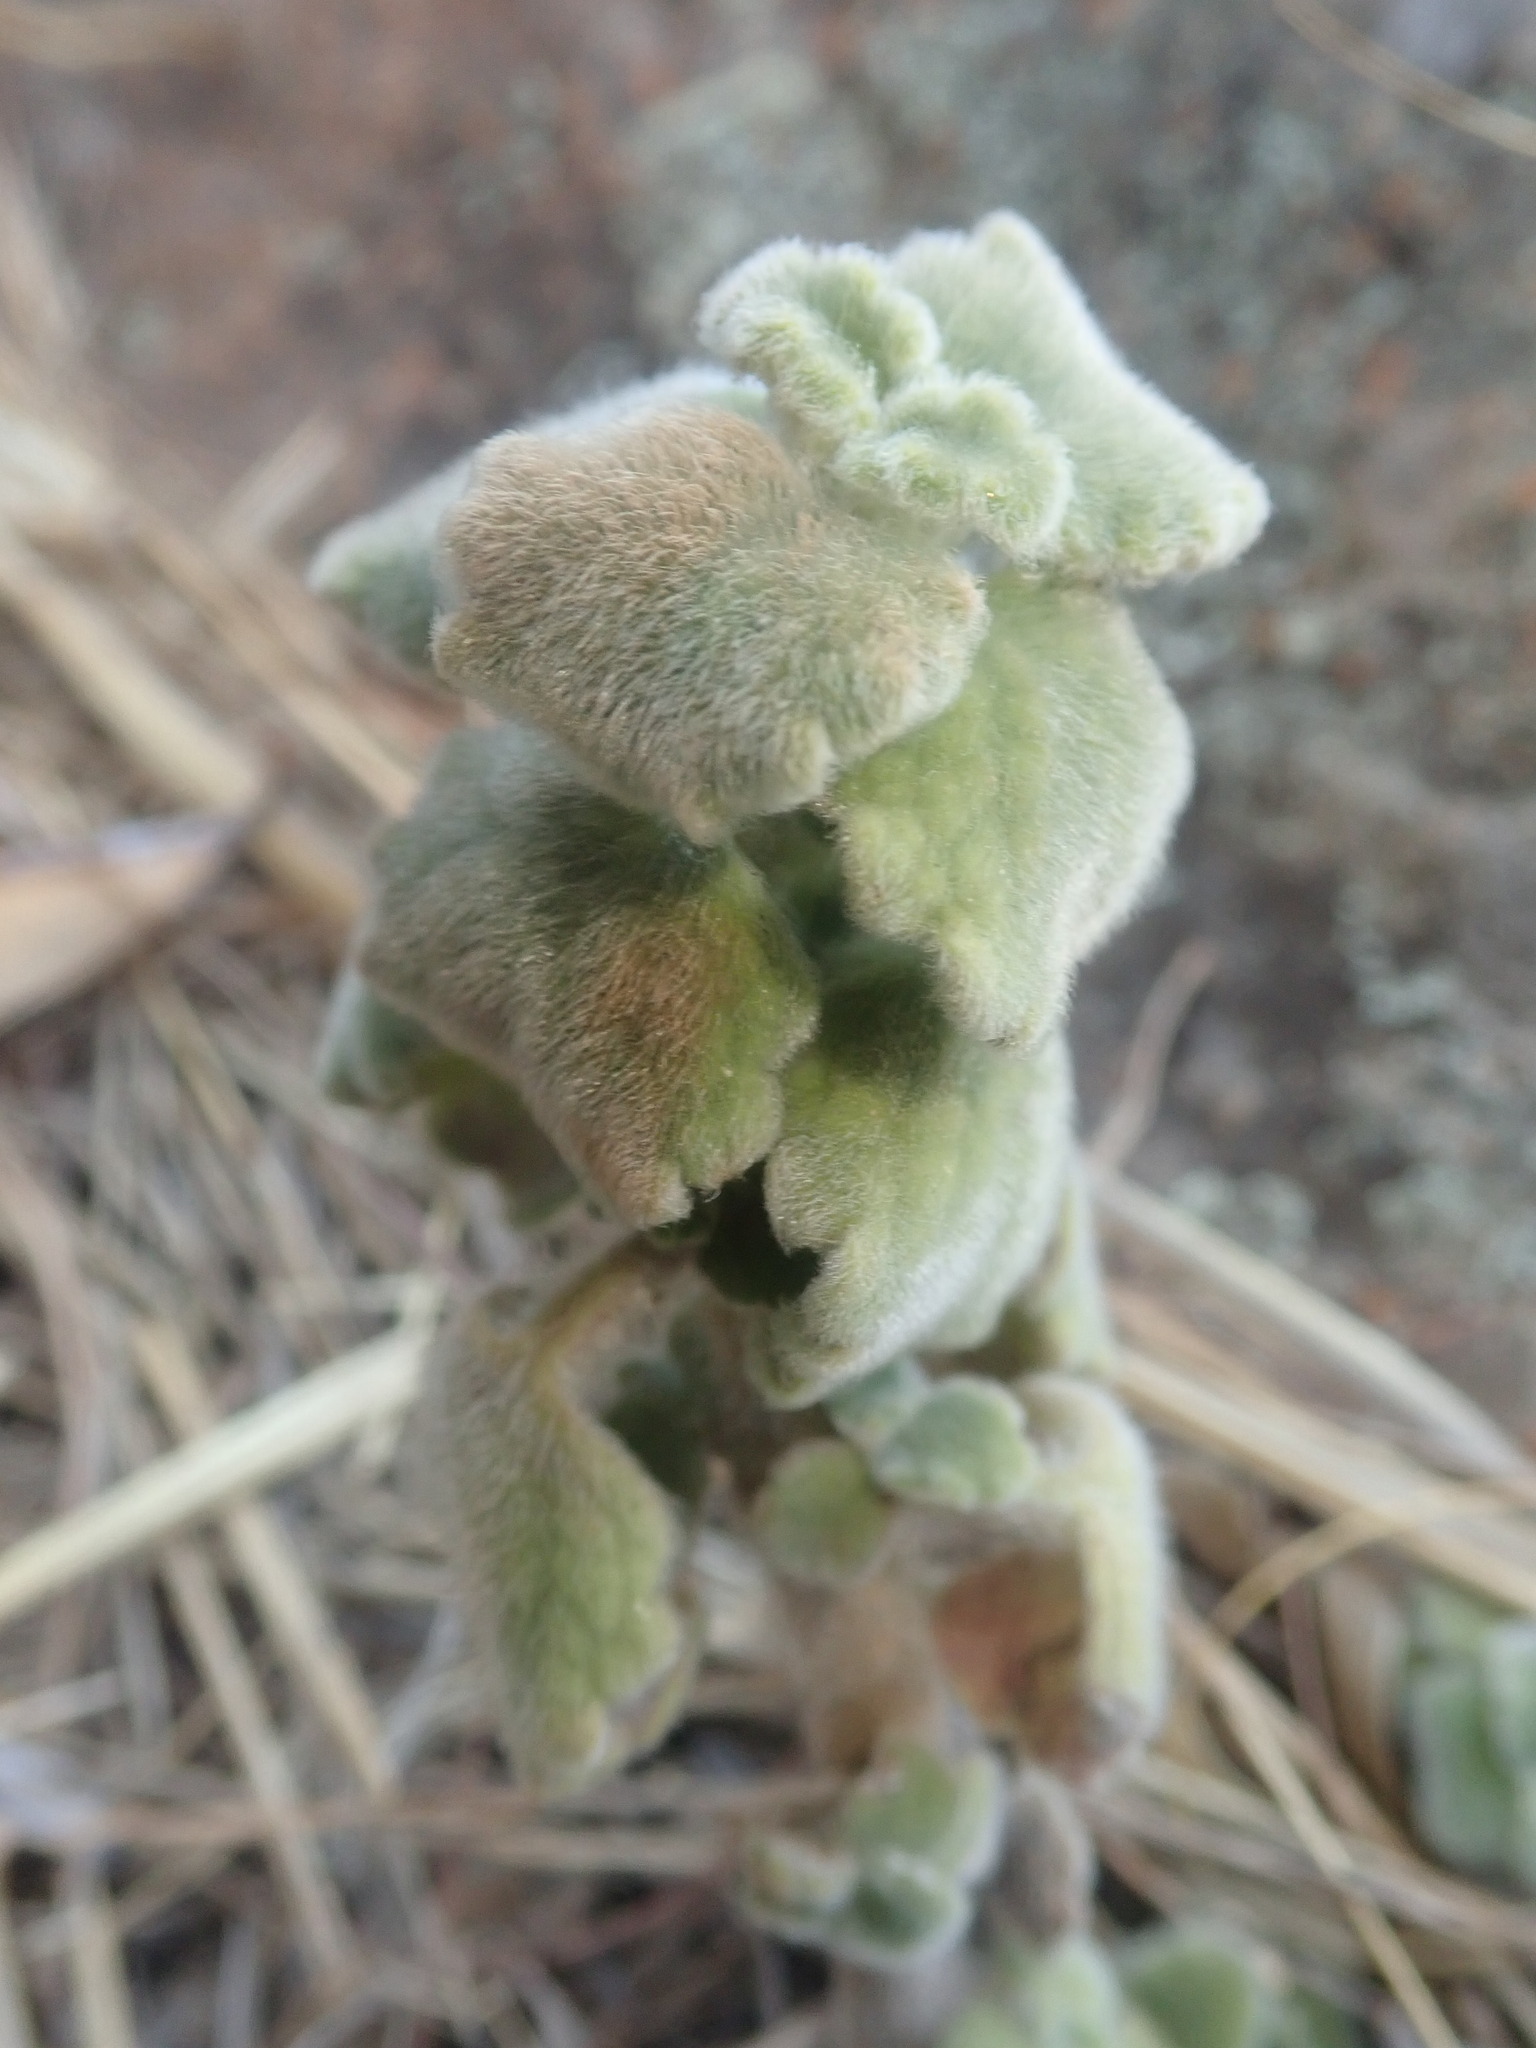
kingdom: Plantae
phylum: Tracheophyta
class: Magnoliopsida
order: Lamiales
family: Lamiaceae
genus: Coleus
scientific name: Coleus hadiensis
